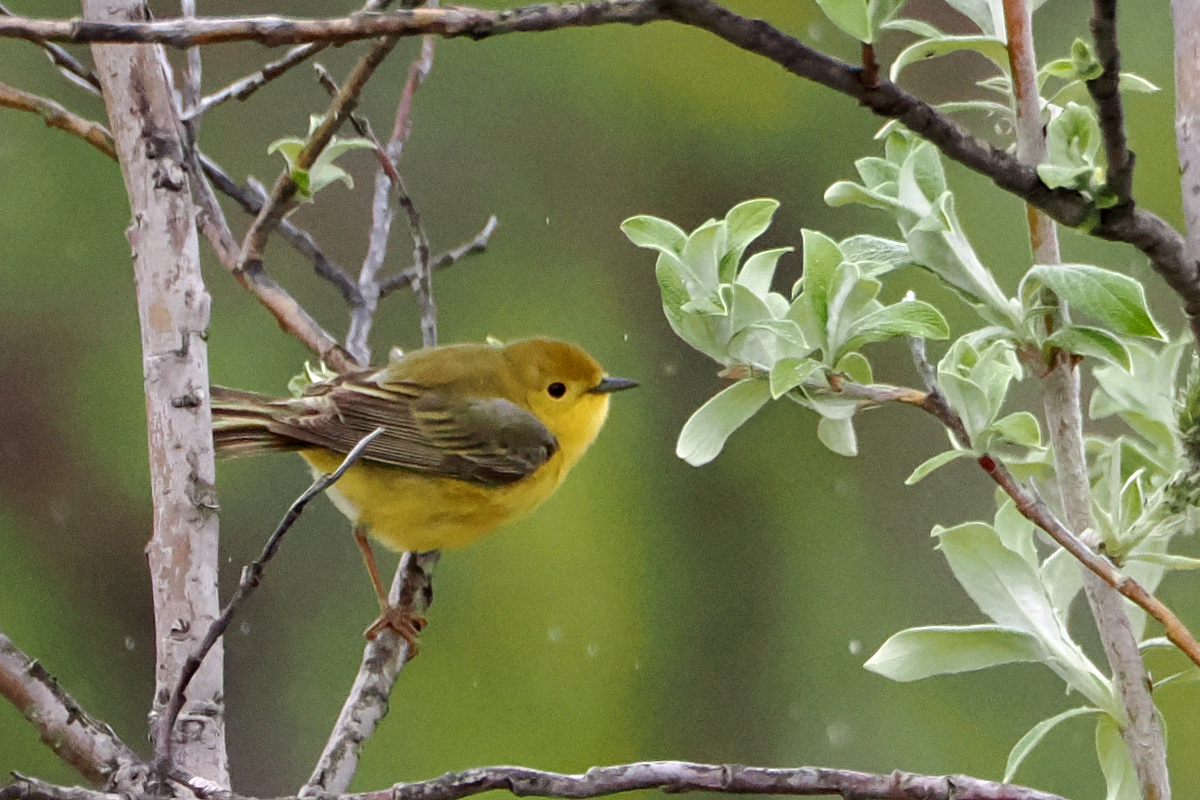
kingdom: Animalia
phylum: Chordata
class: Aves
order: Passeriformes
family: Parulidae
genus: Setophaga
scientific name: Setophaga petechia
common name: Yellow warbler
